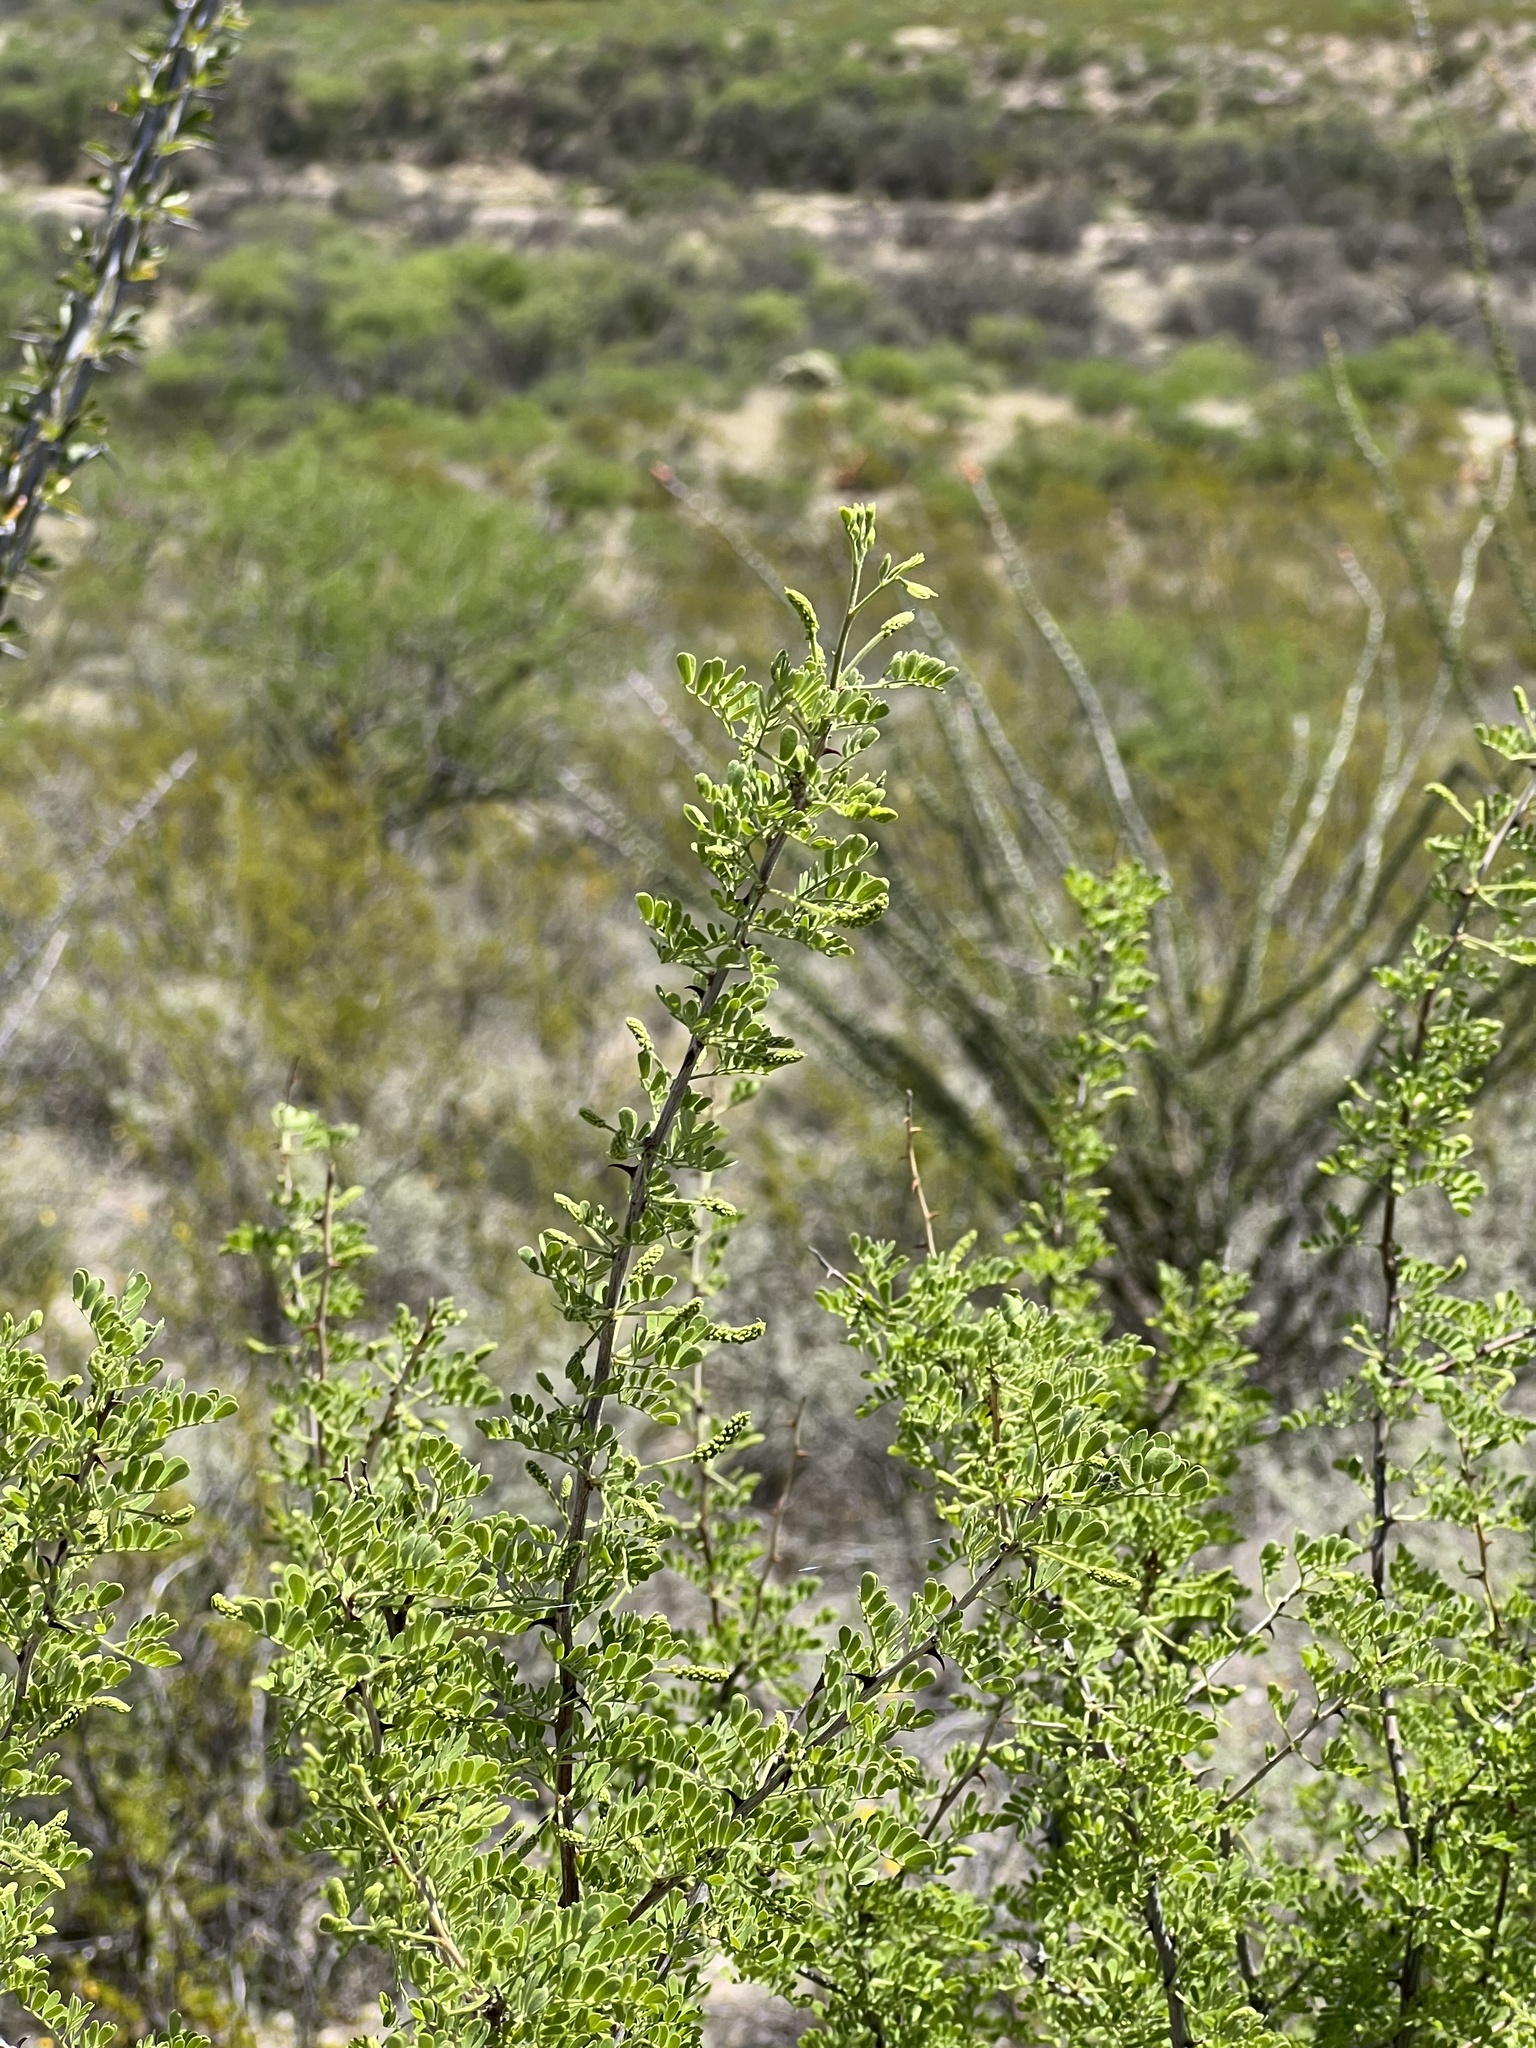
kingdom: Plantae
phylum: Tracheophyta
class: Magnoliopsida
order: Fabales
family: Fabaceae
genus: Senegalia
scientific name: Senegalia greggii
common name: Texas-mimosa
